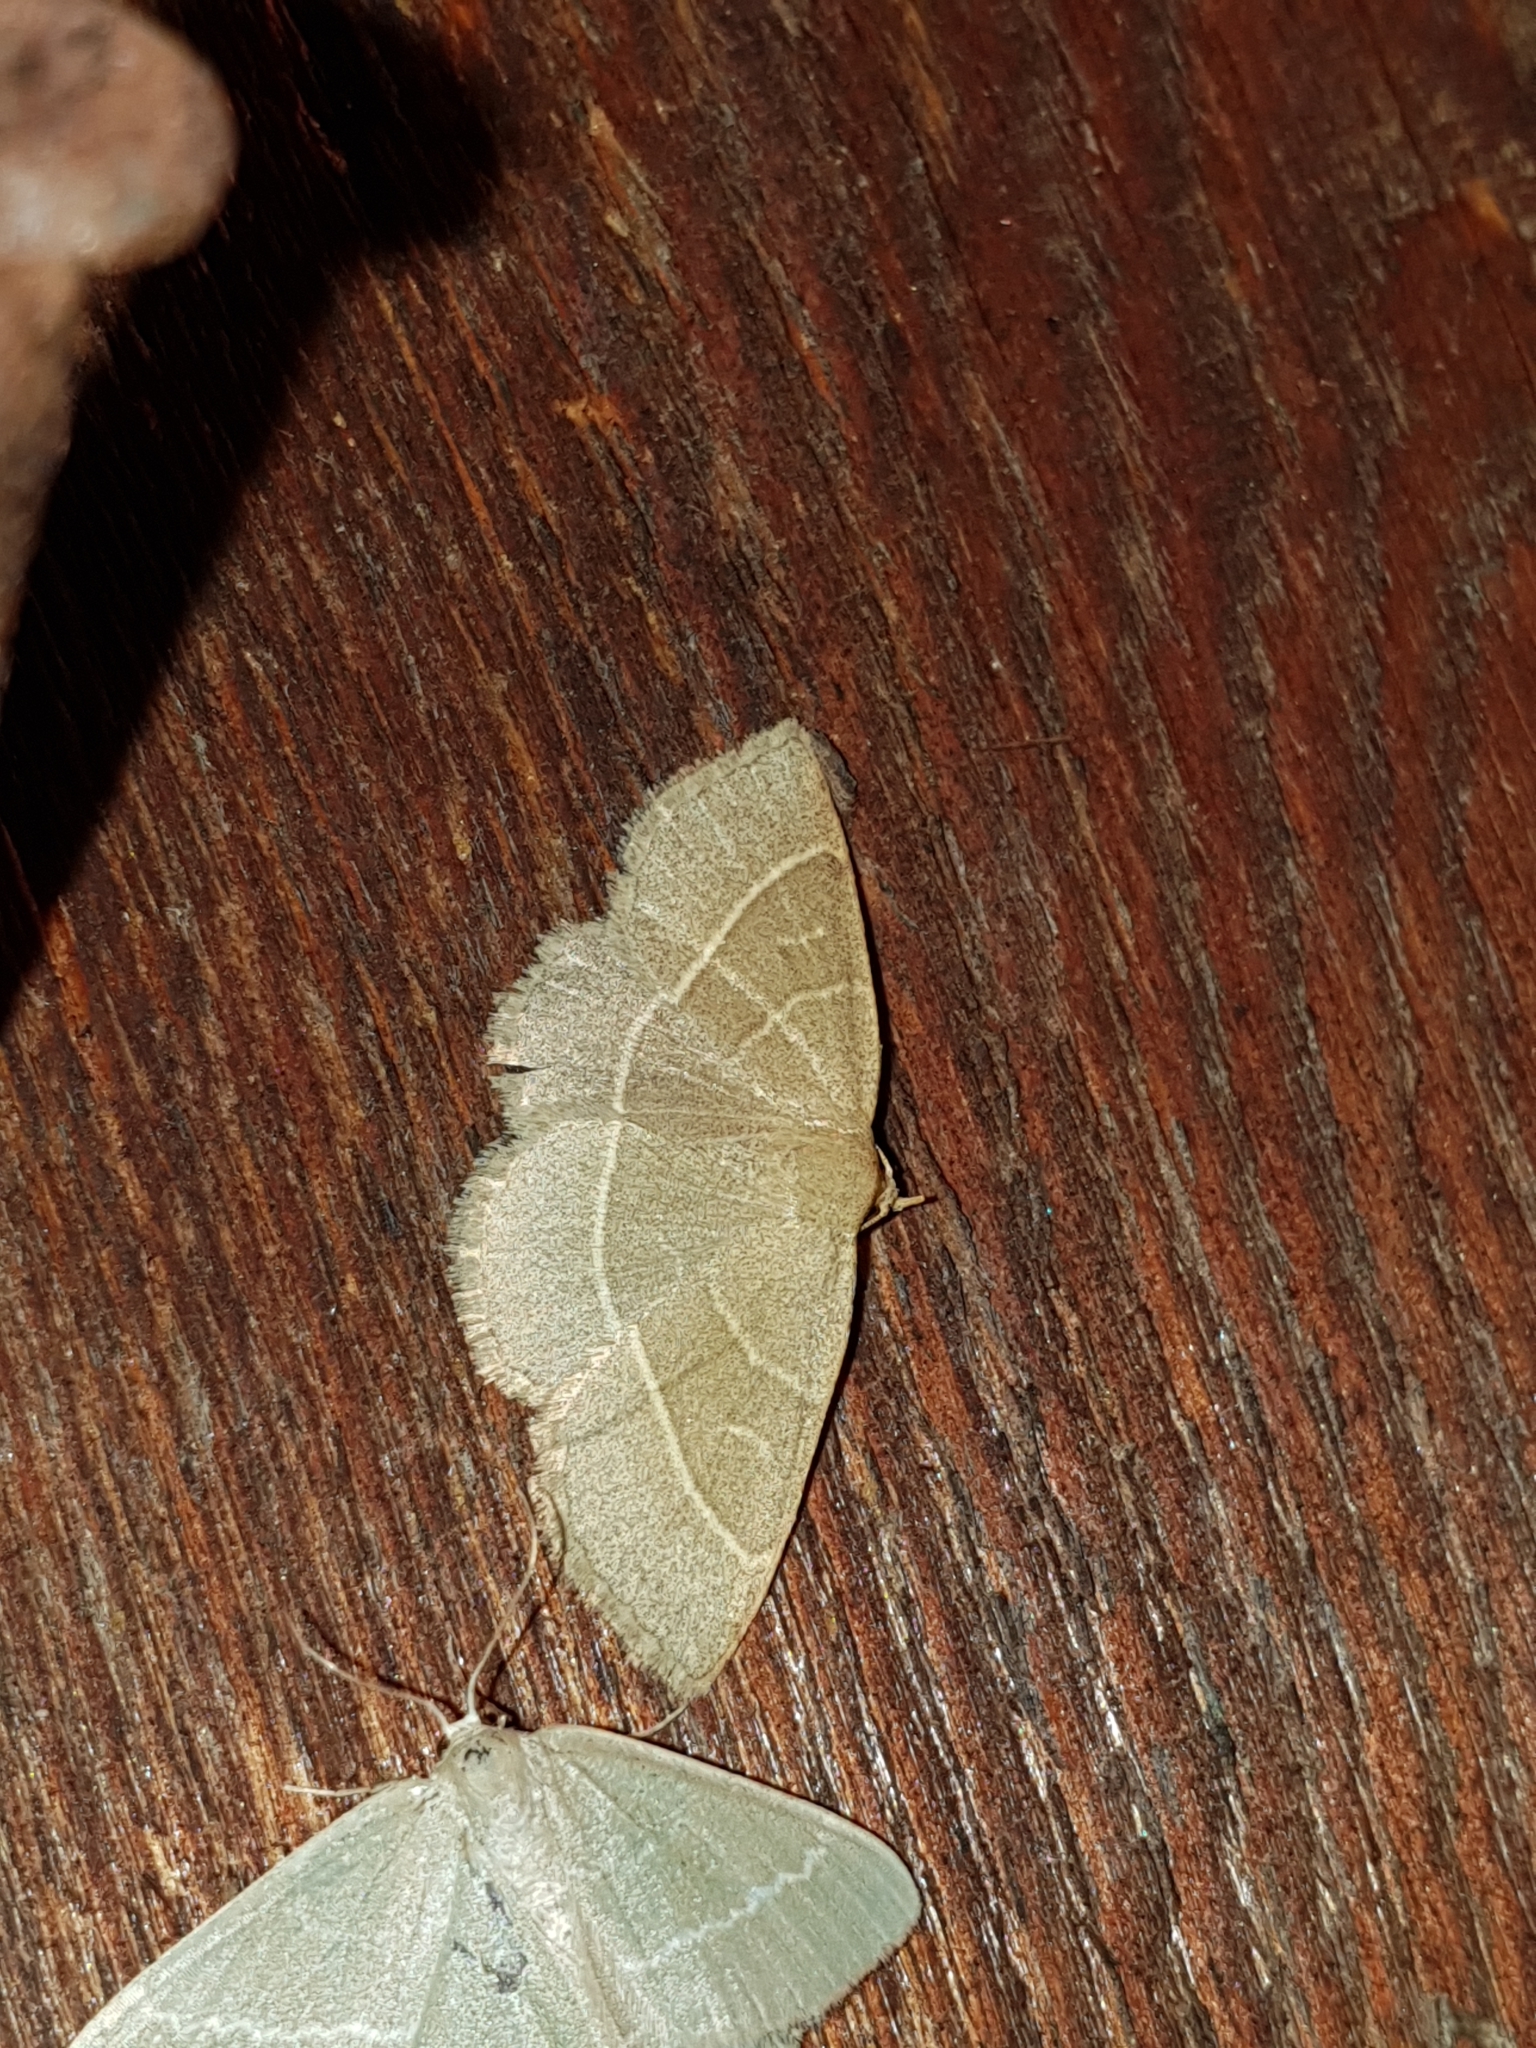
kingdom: Animalia
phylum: Arthropoda
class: Insecta
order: Lepidoptera
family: Erebidae
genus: Trisateles
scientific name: Trisateles emortualis
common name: Olive crescent
